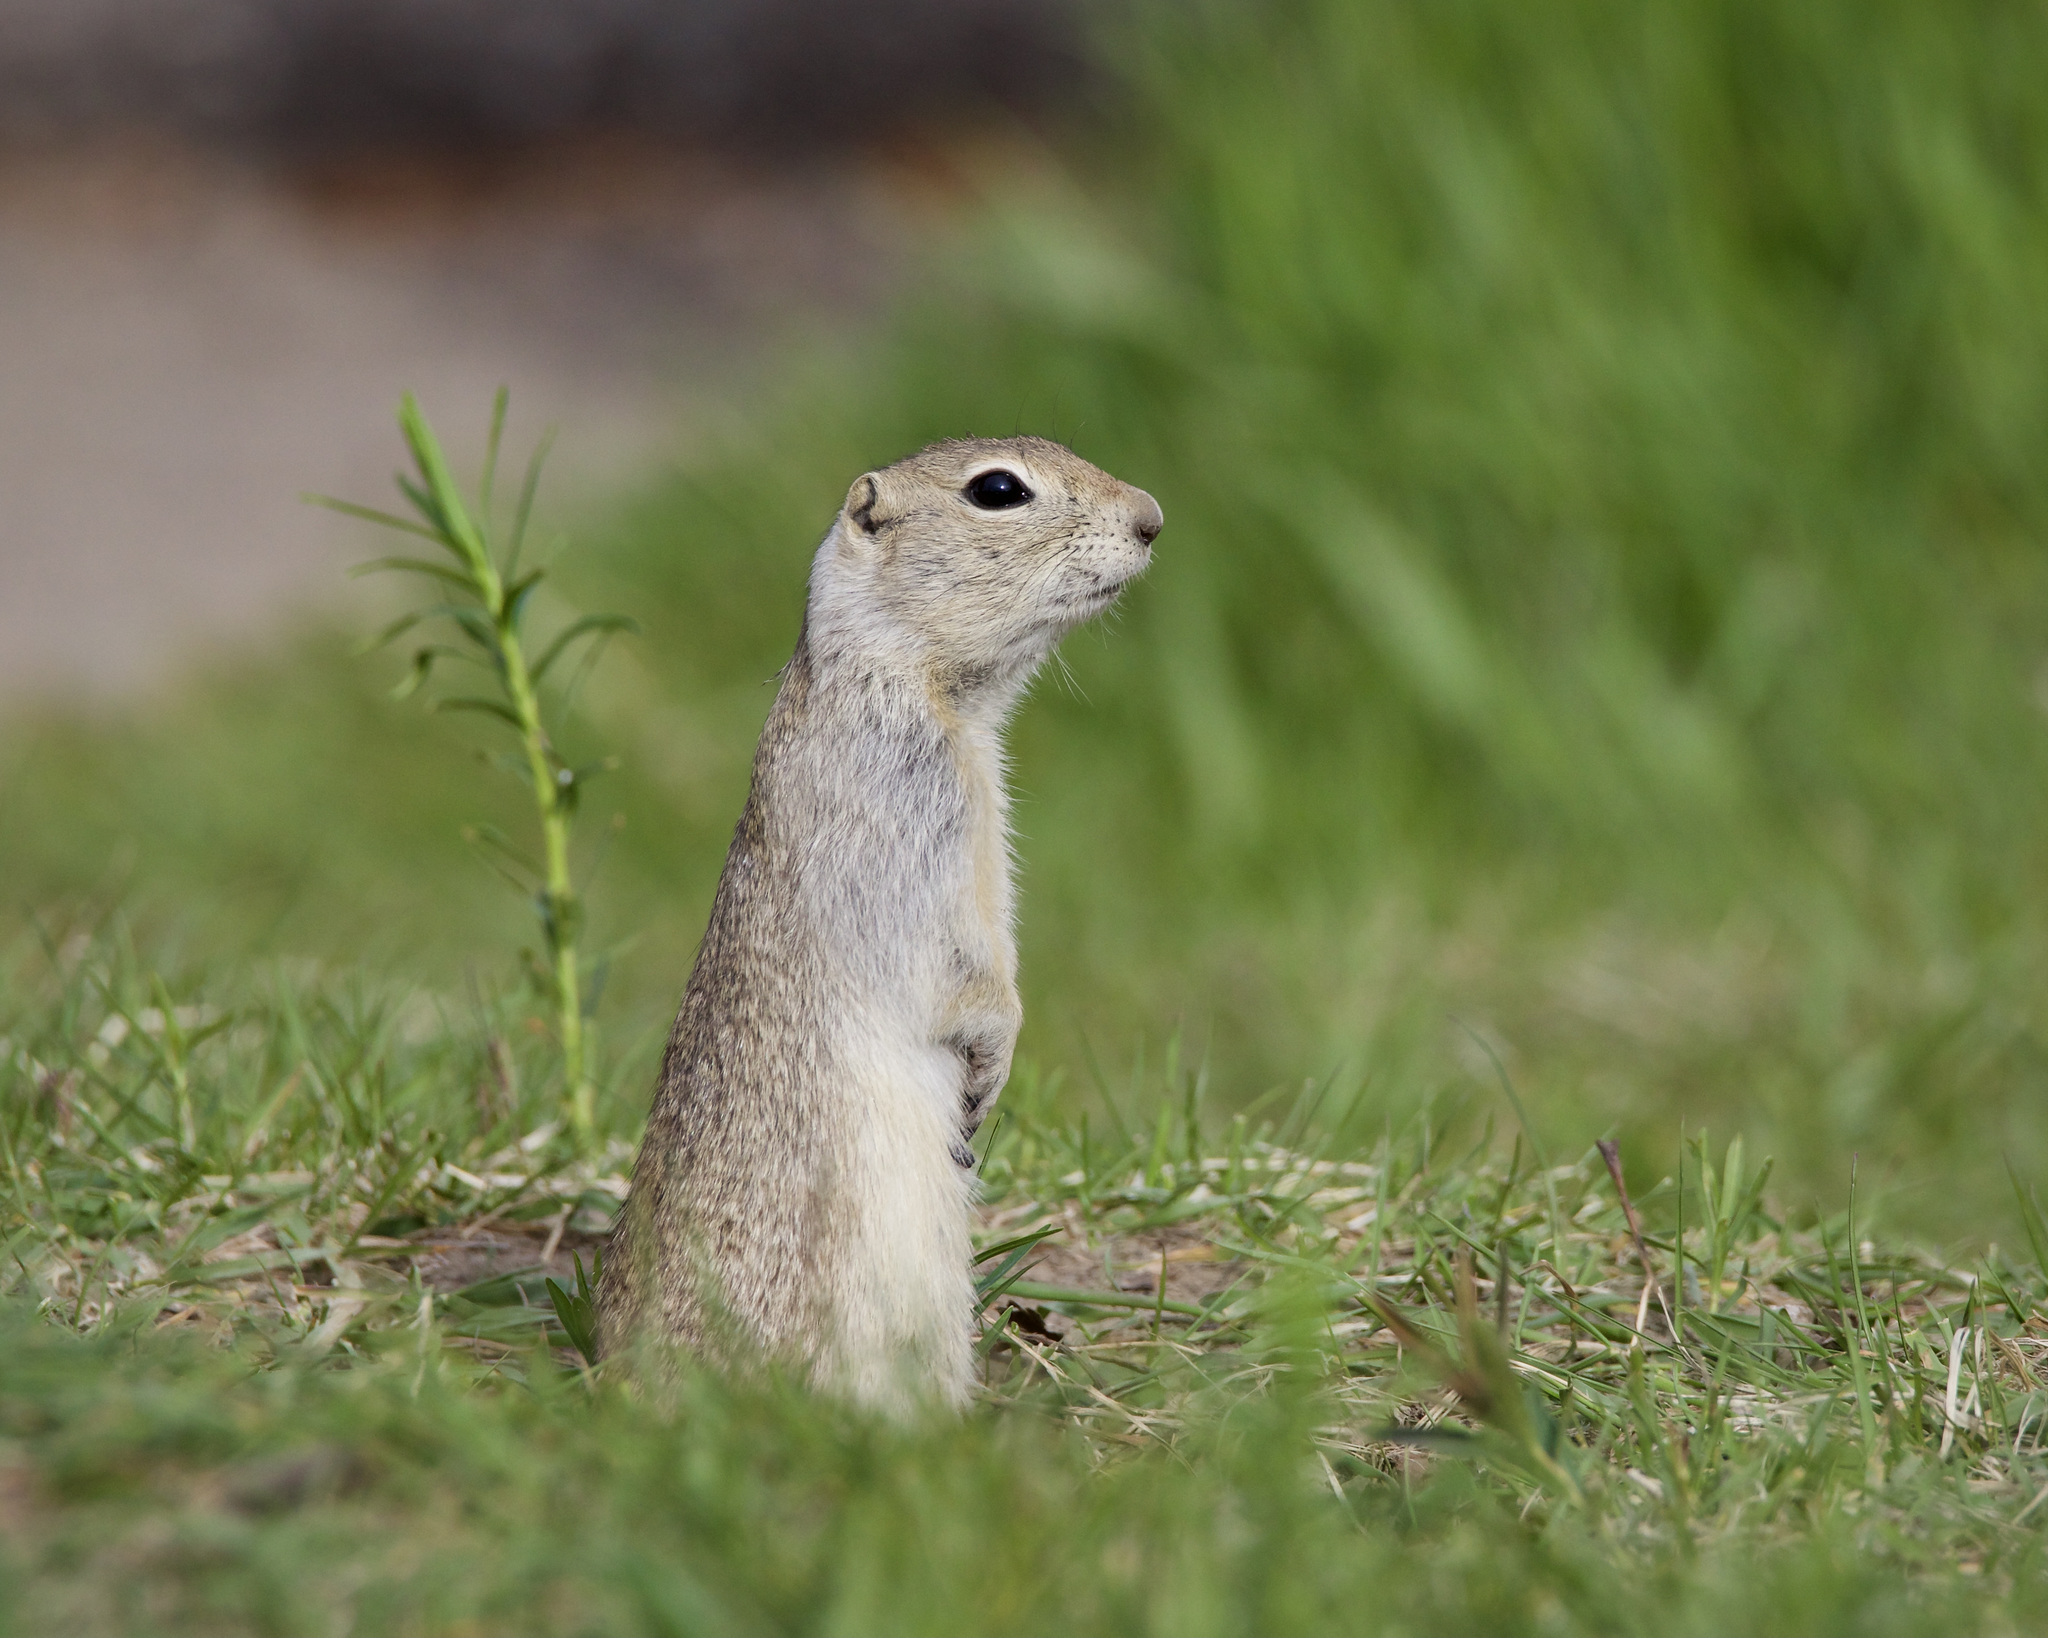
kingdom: Animalia
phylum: Chordata
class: Mammalia
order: Rodentia
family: Sciuridae
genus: Urocitellus
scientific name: Urocitellus richardsonii
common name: Richardson's ground squirrel
